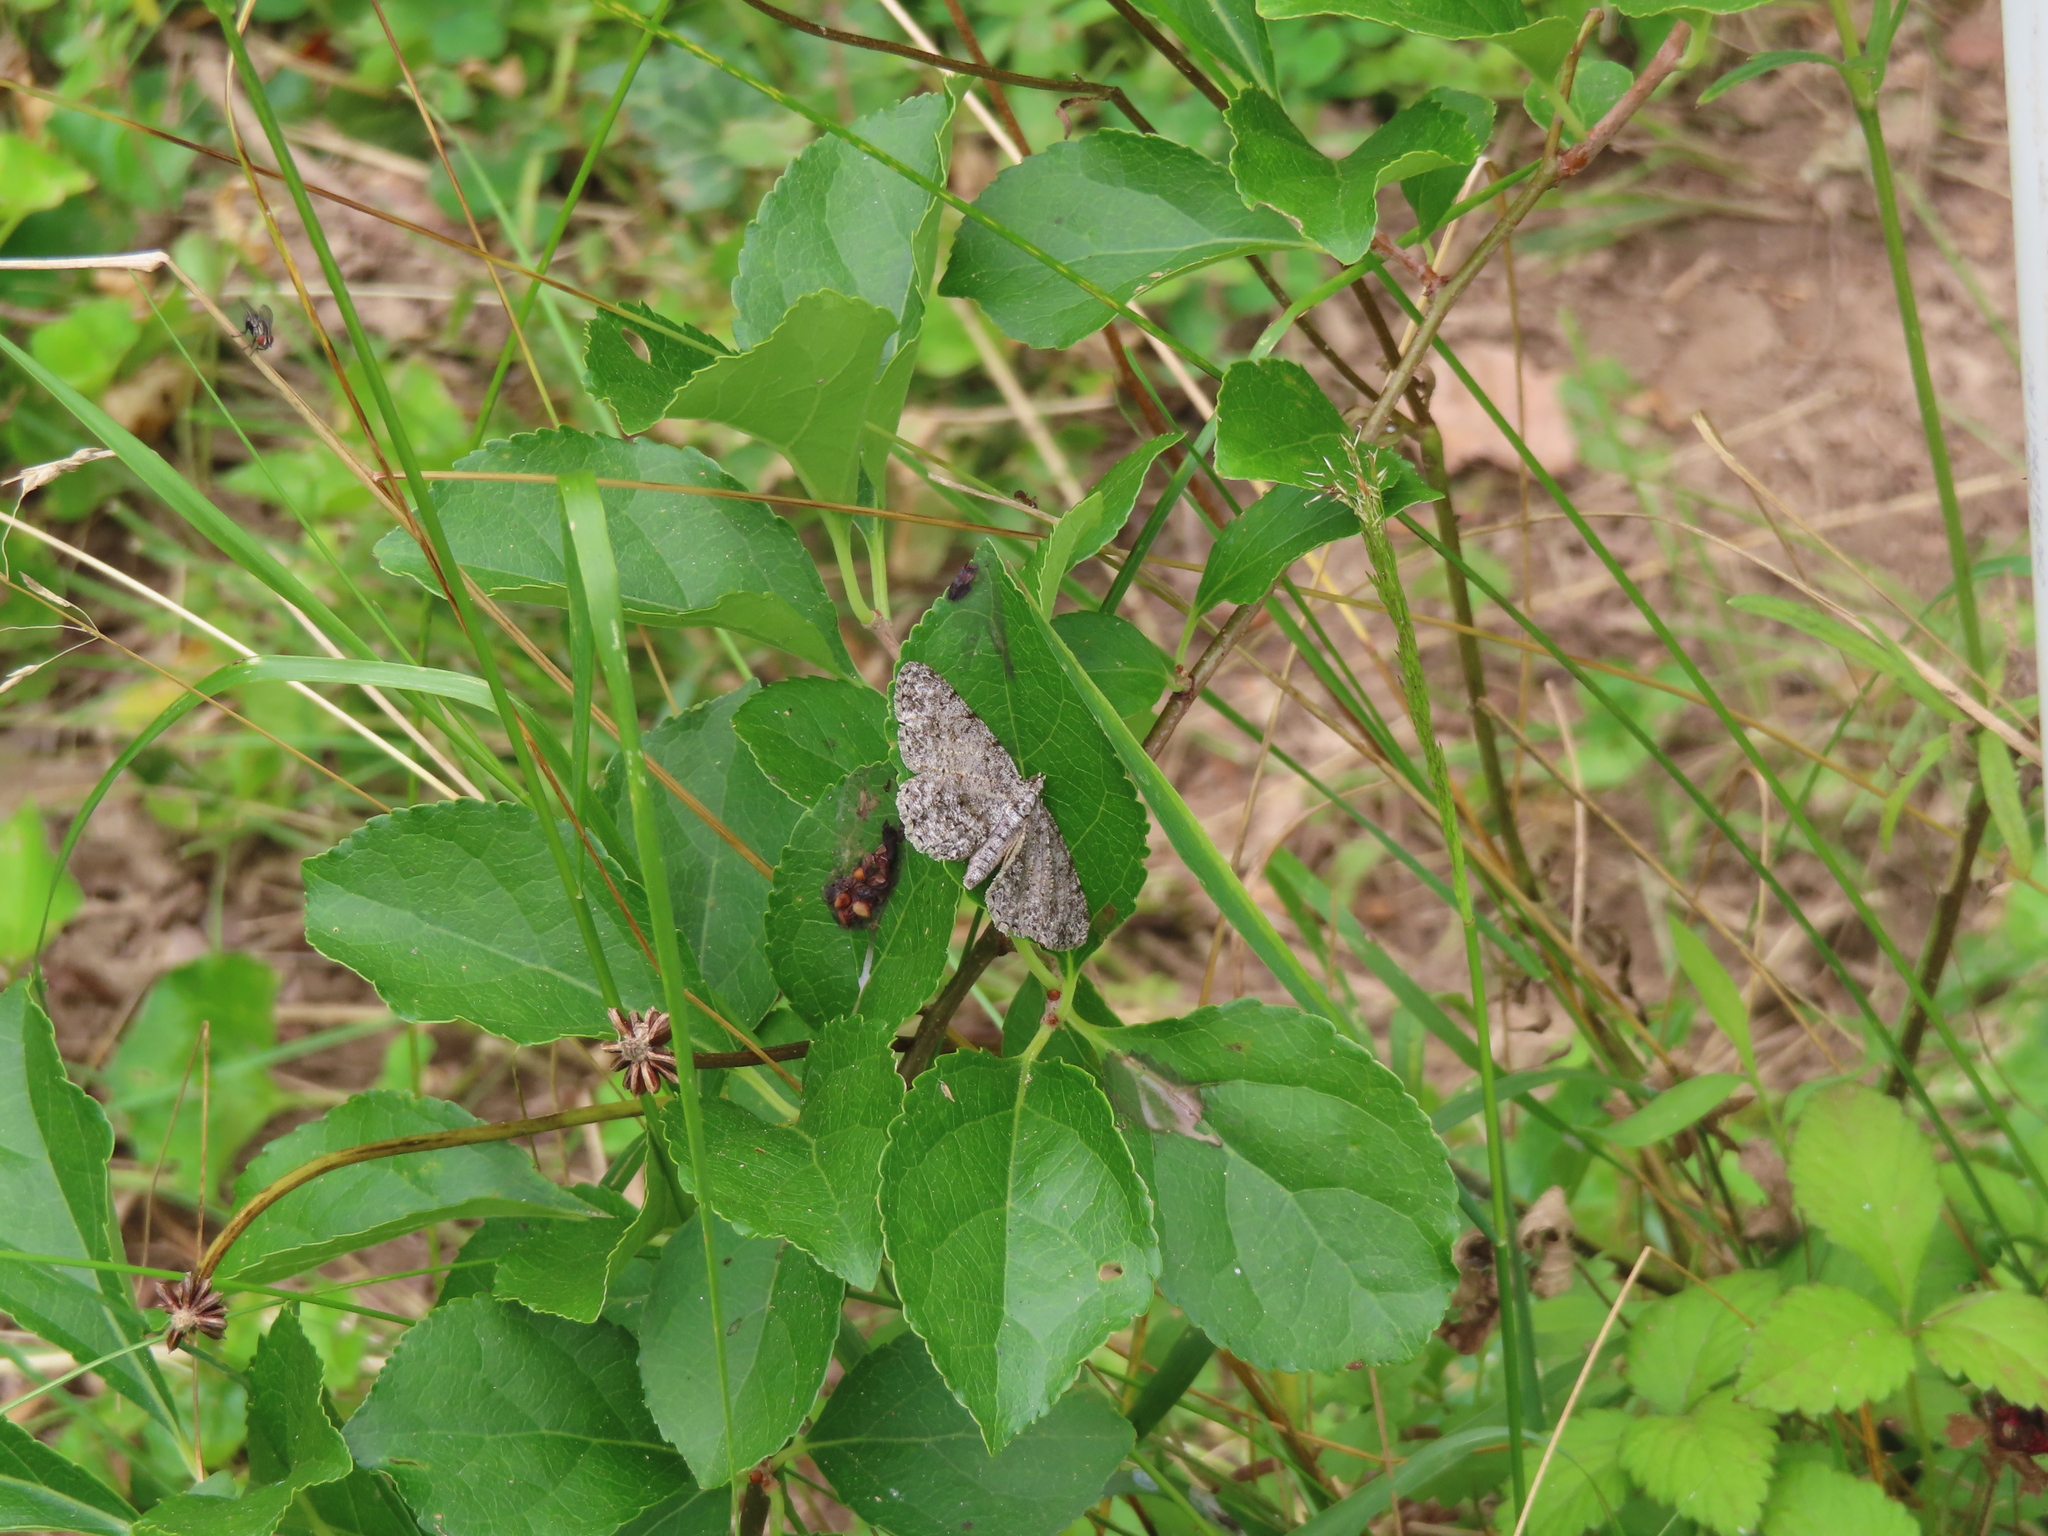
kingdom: Animalia
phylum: Arthropoda
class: Insecta
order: Lepidoptera
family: Geometridae
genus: Protoboarmia
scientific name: Protoboarmia porcelaria
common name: Porcelain gray
